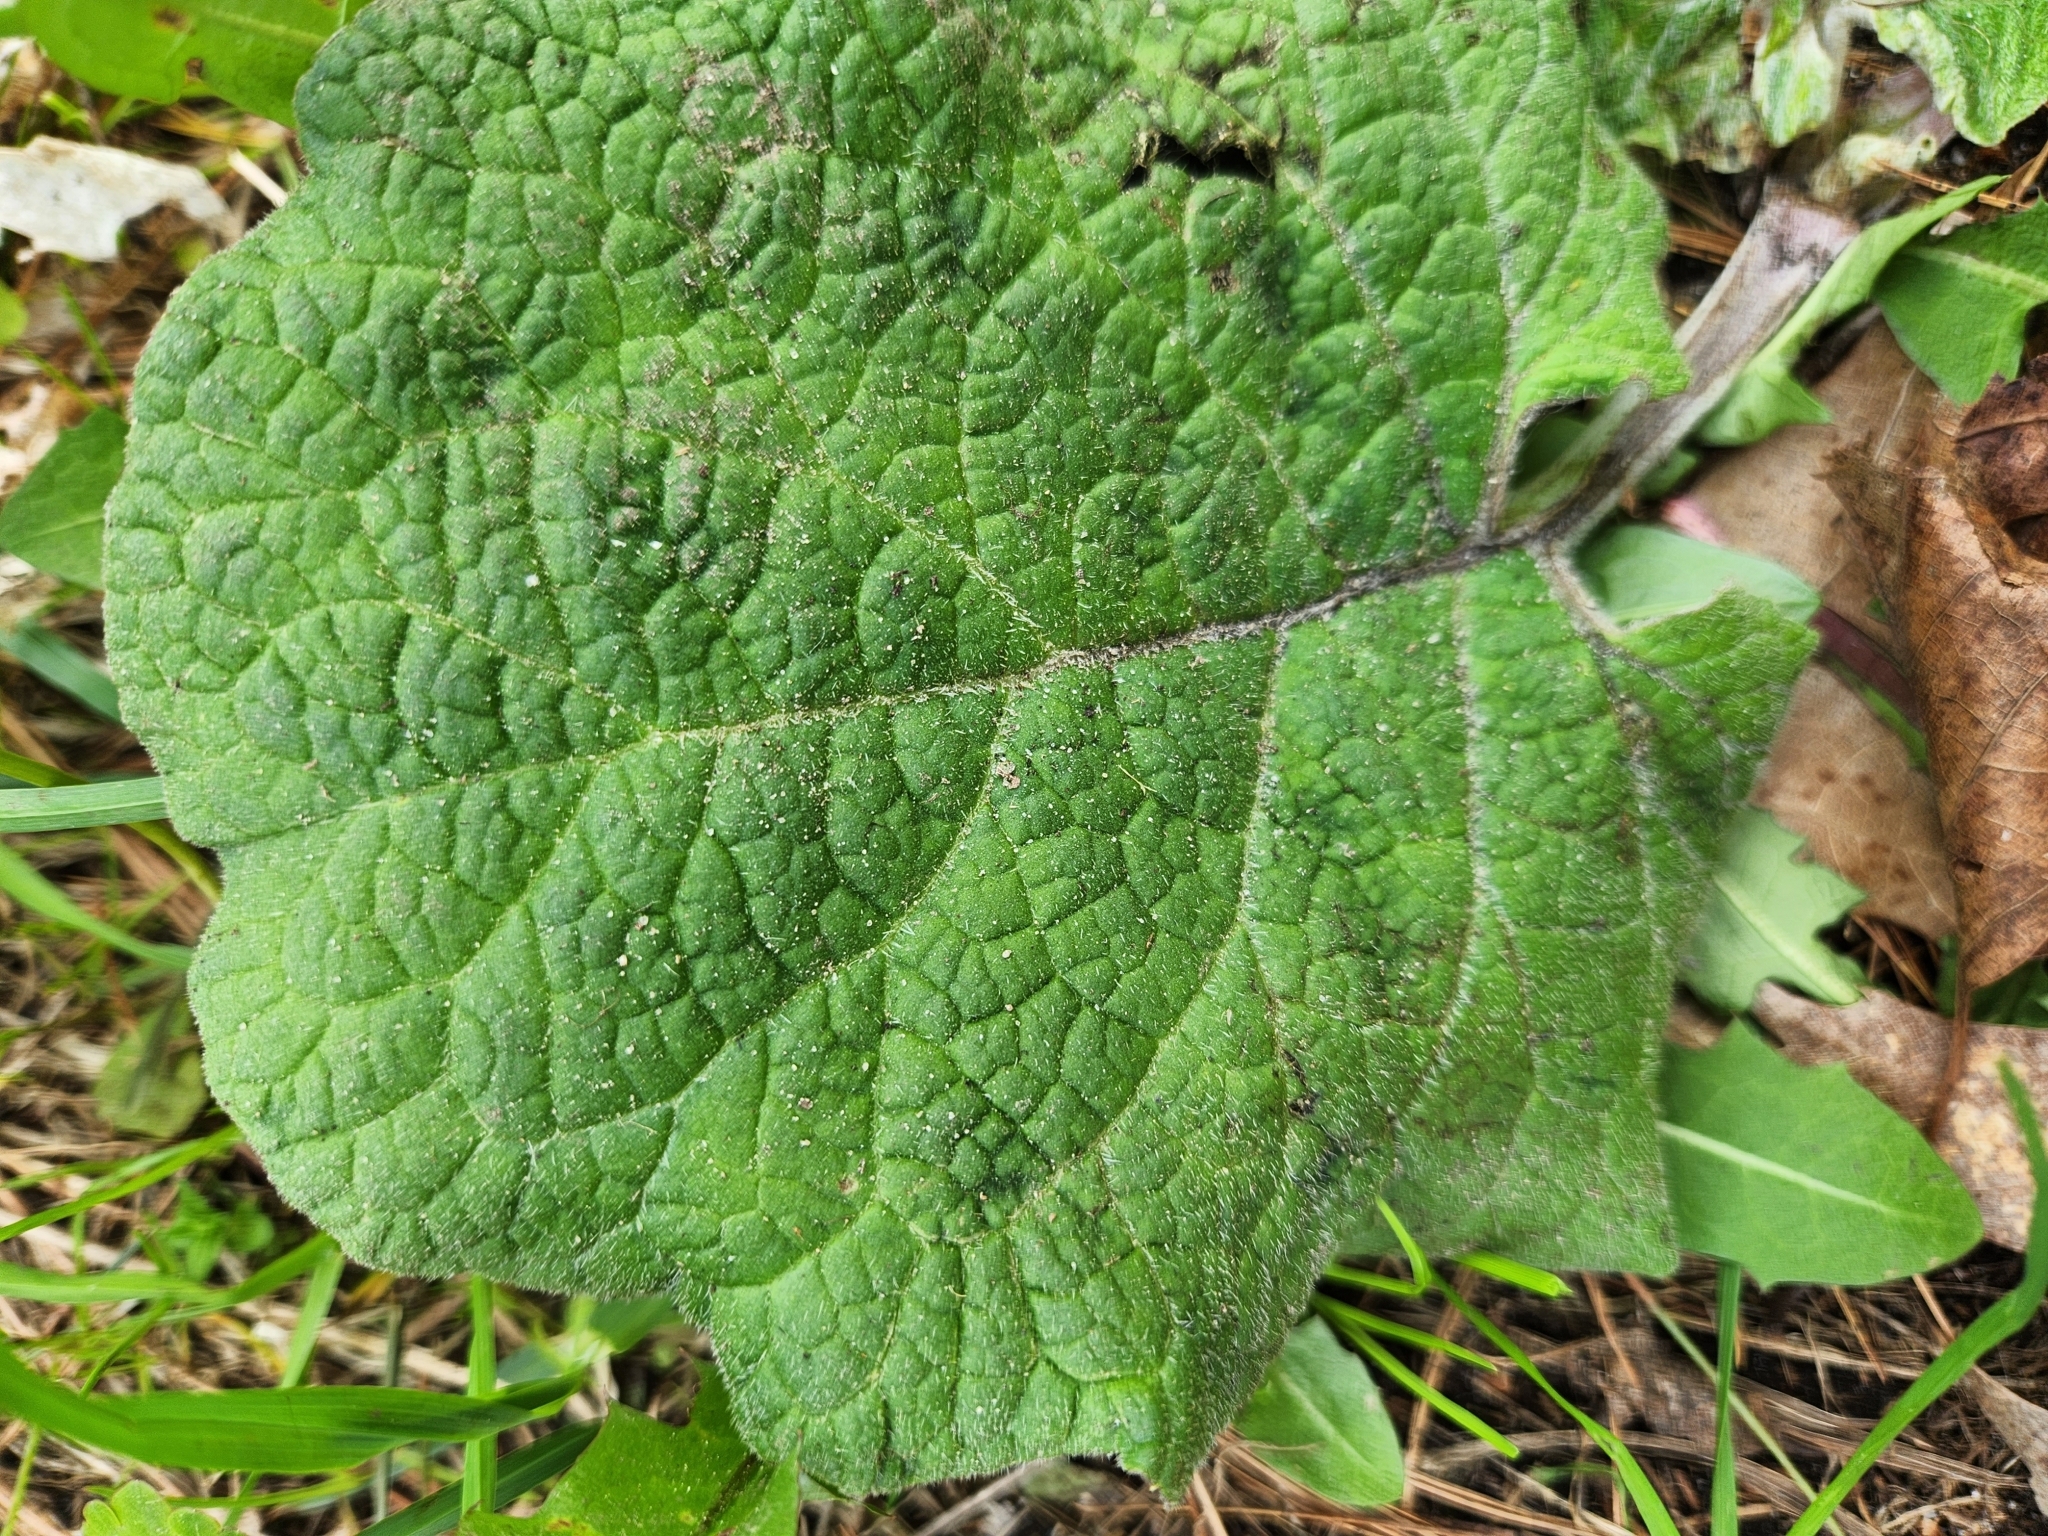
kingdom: Plantae
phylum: Tracheophyta
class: Magnoliopsida
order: Asterales
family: Asteraceae
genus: Arctium
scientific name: Arctium
